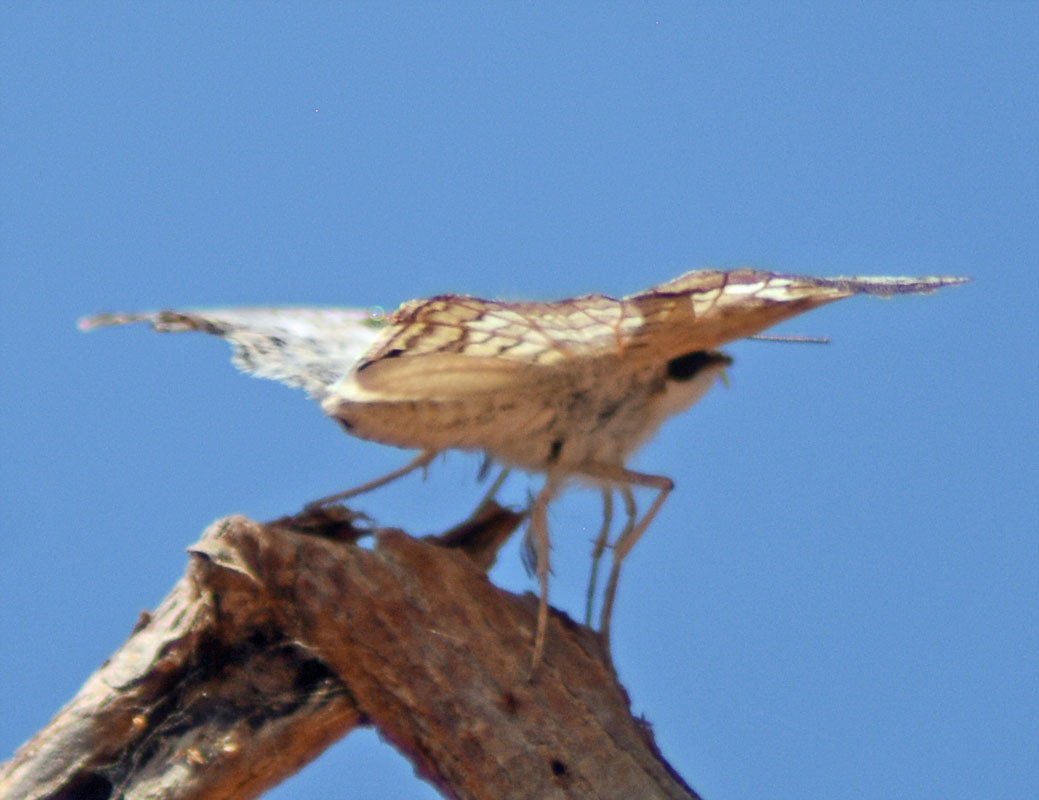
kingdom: Animalia
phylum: Arthropoda
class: Insecta
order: Lepidoptera
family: Hesperiidae
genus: Mylon
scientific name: Mylon pelopidas
